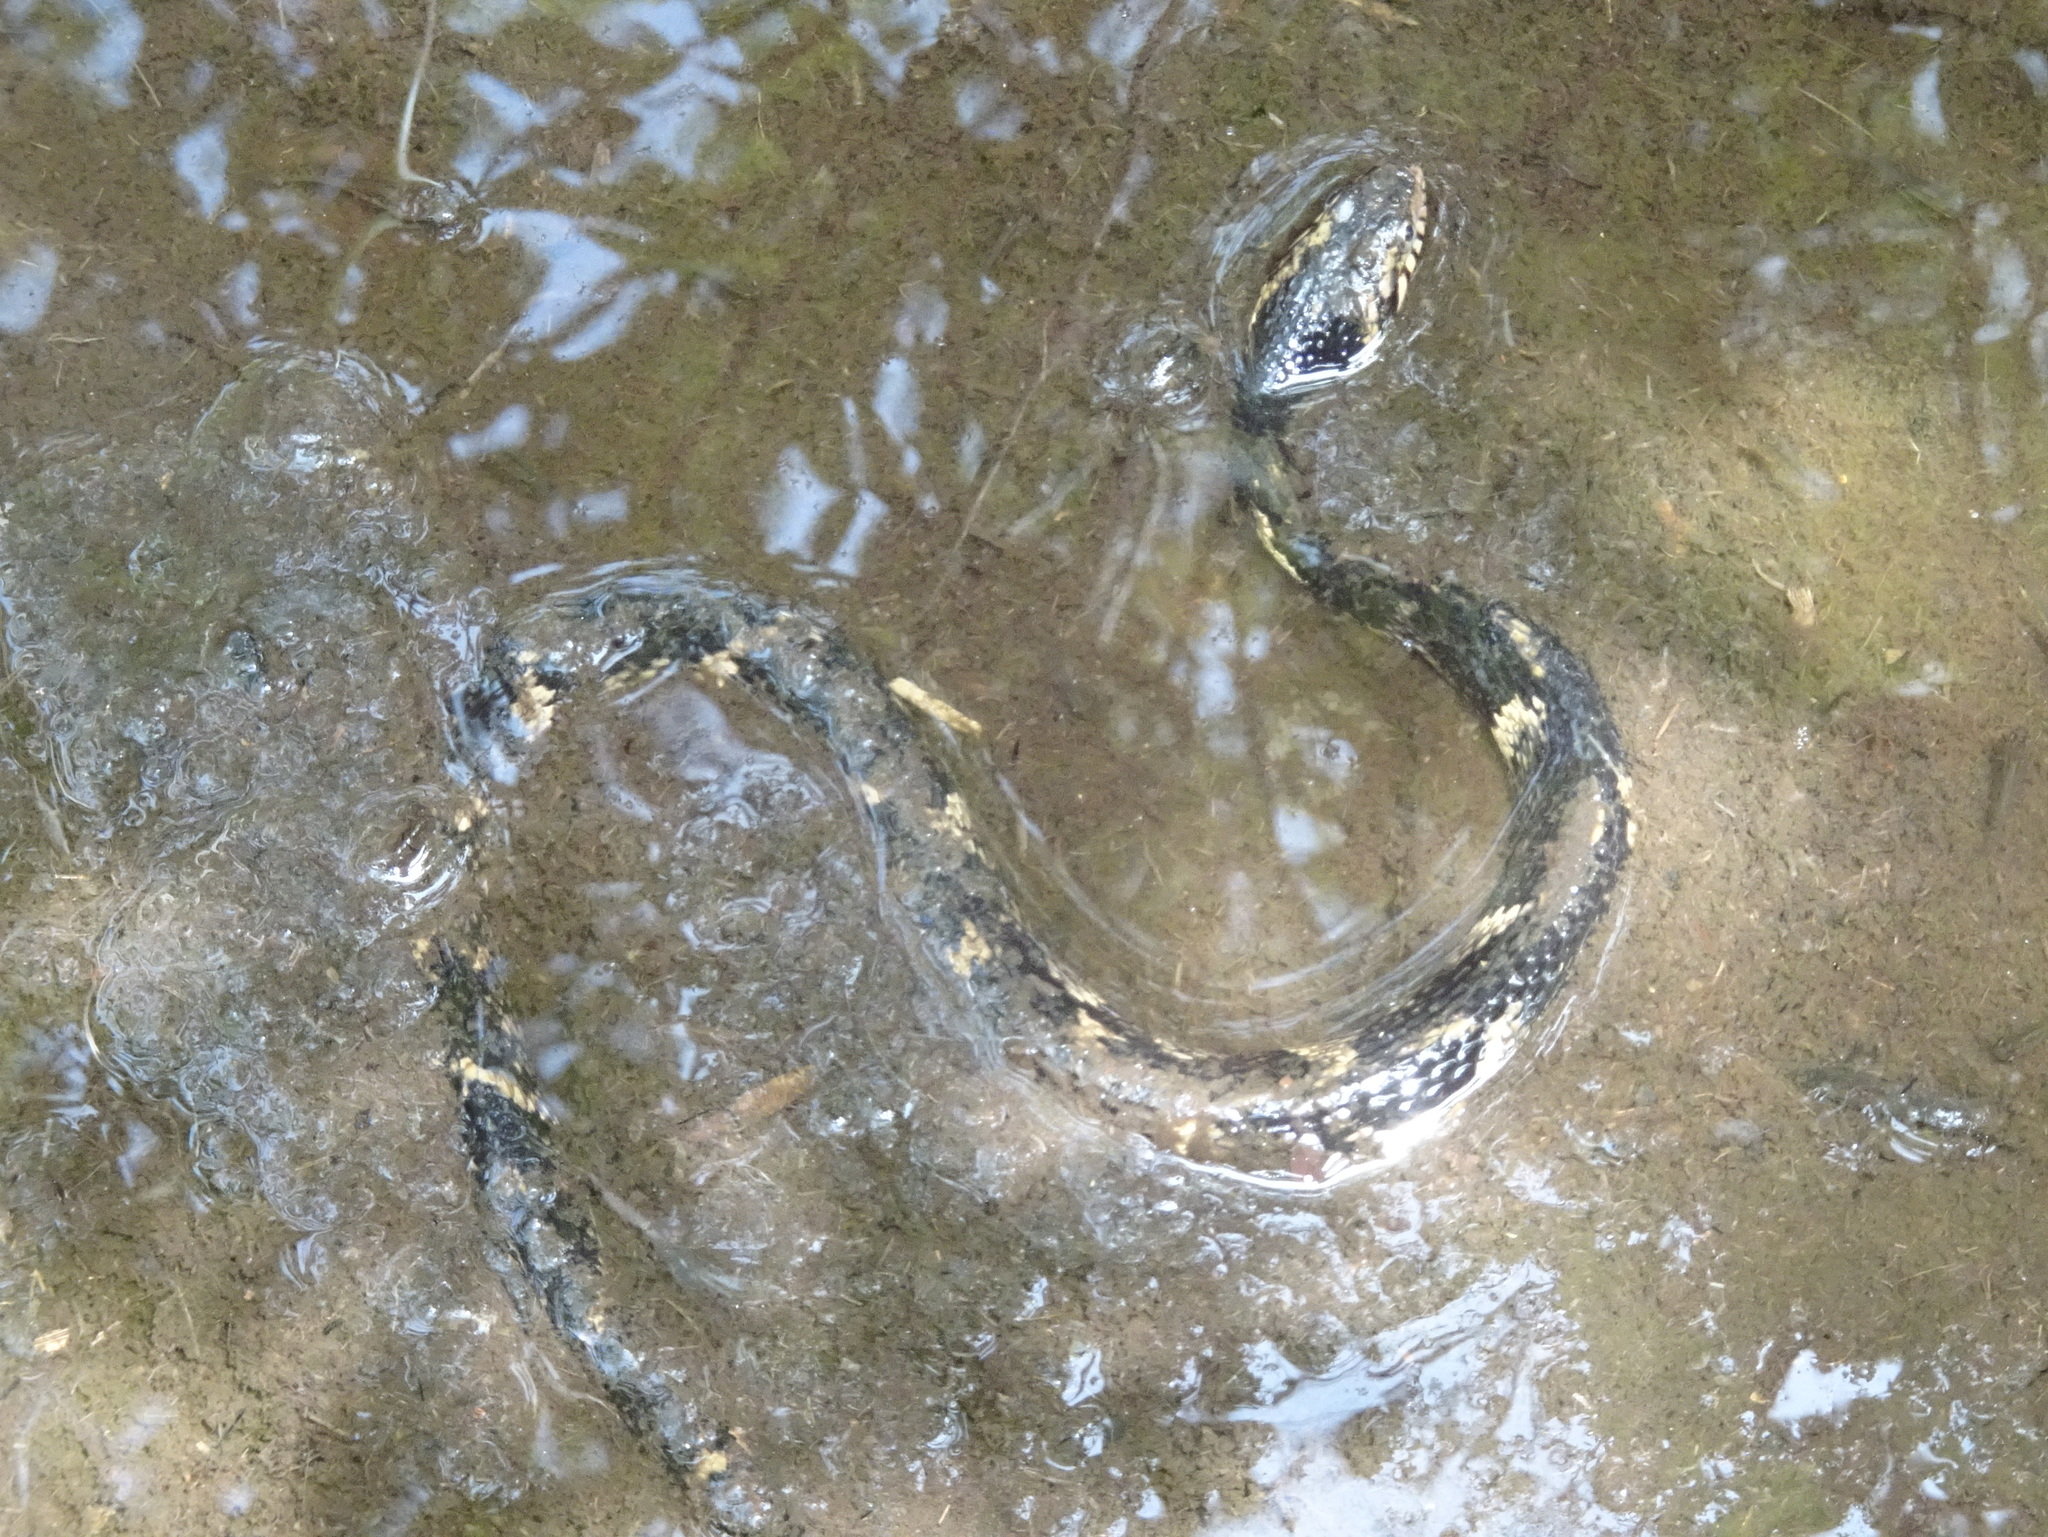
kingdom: Animalia
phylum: Chordata
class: Squamata
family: Colubridae
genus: Nerodia
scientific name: Nerodia fasciata
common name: Southern water snake
